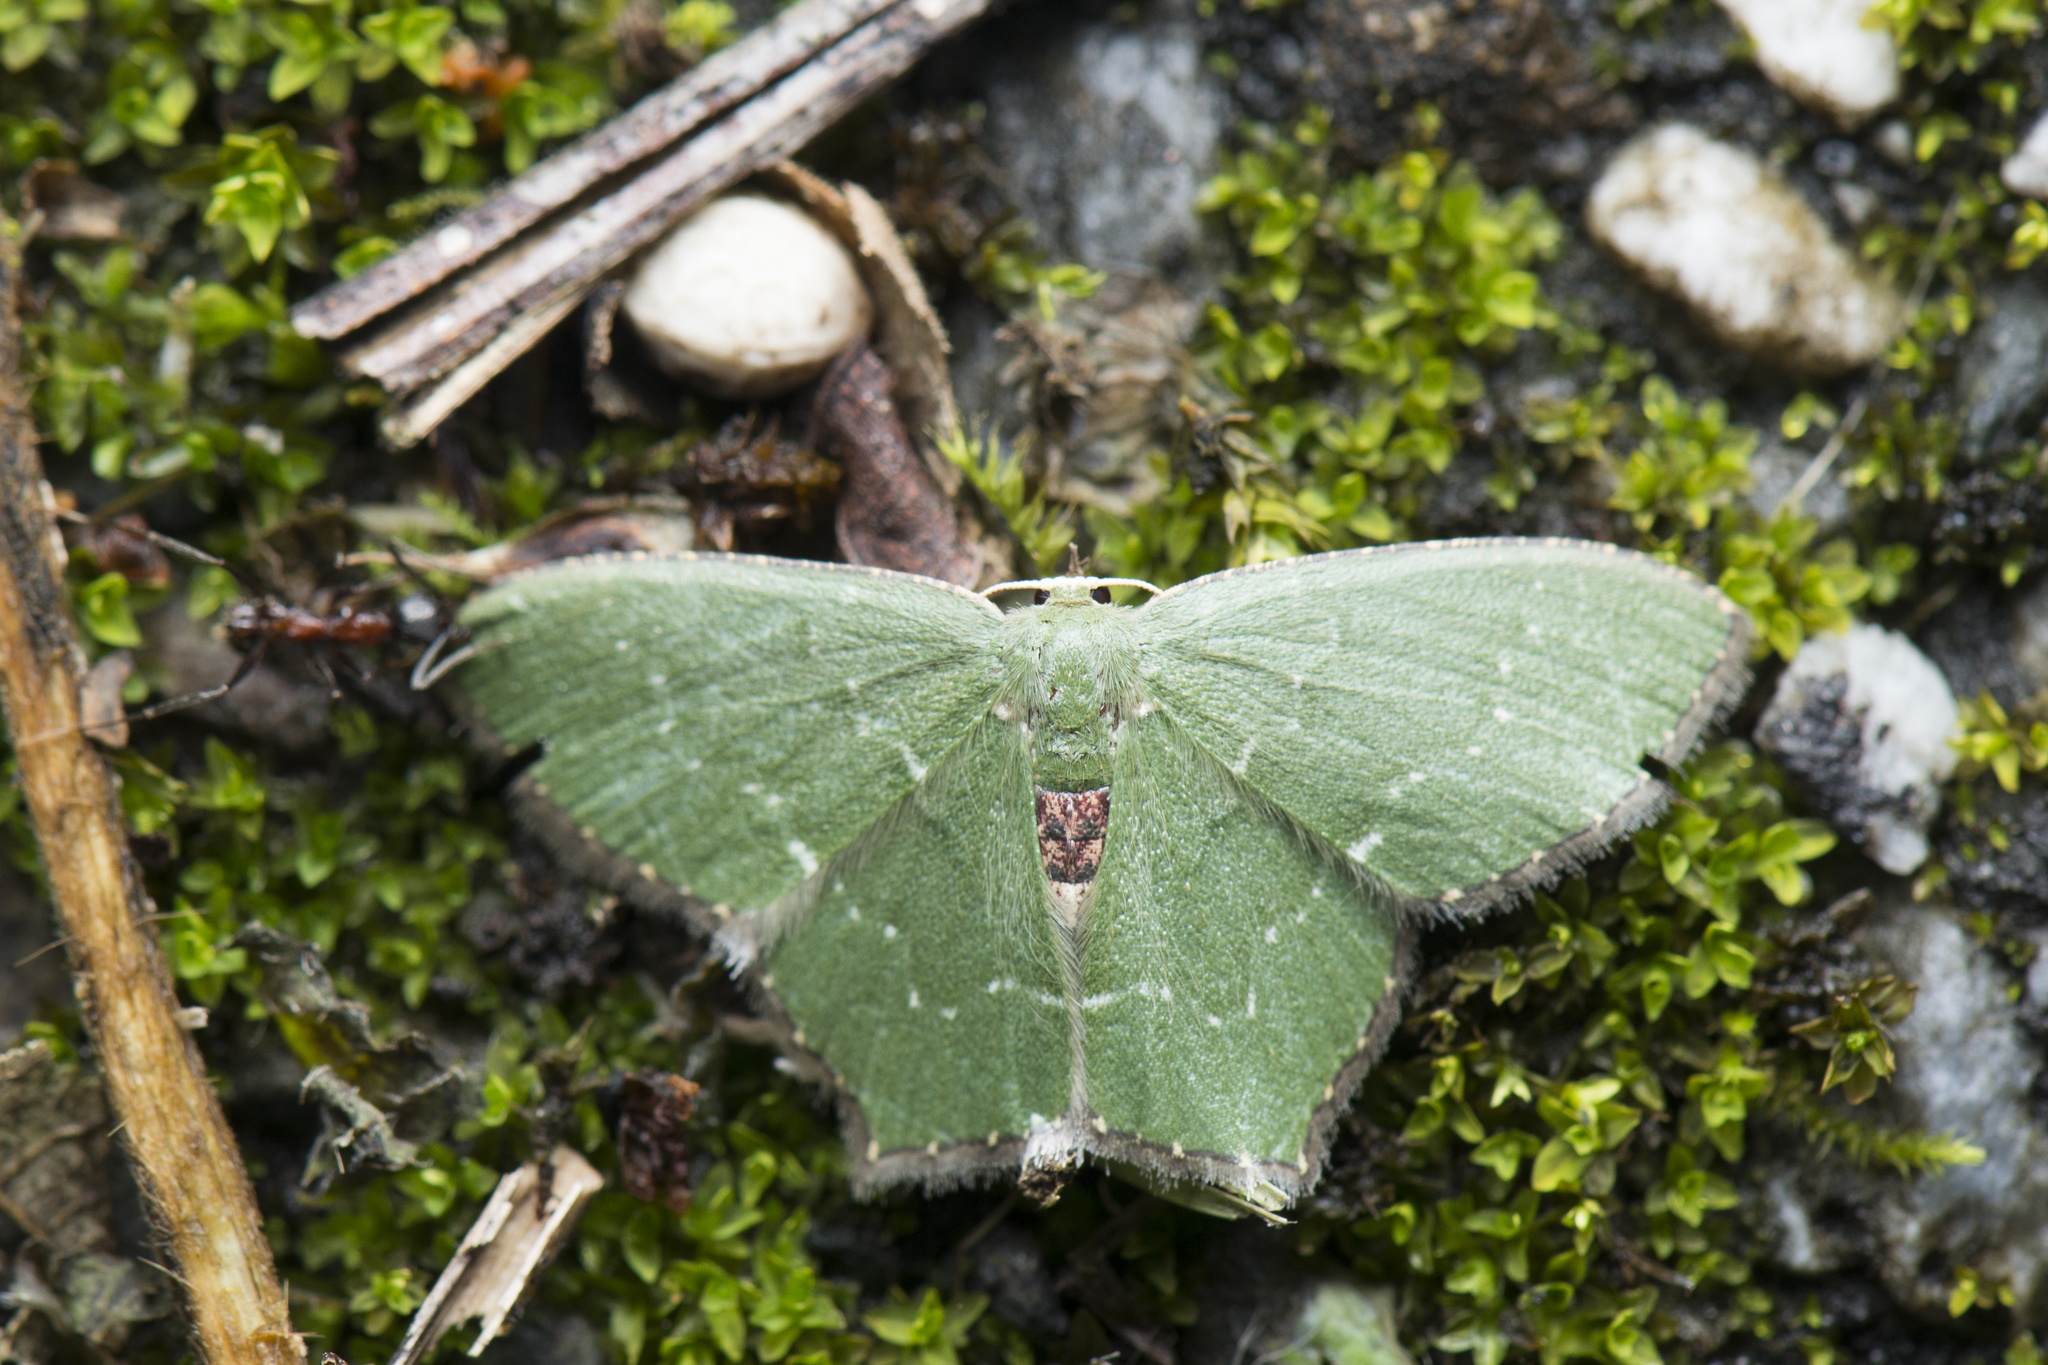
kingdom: Animalia
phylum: Arthropoda
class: Insecta
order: Lepidoptera
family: Geometridae
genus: Hemithea
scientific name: Hemithea tritonaria
